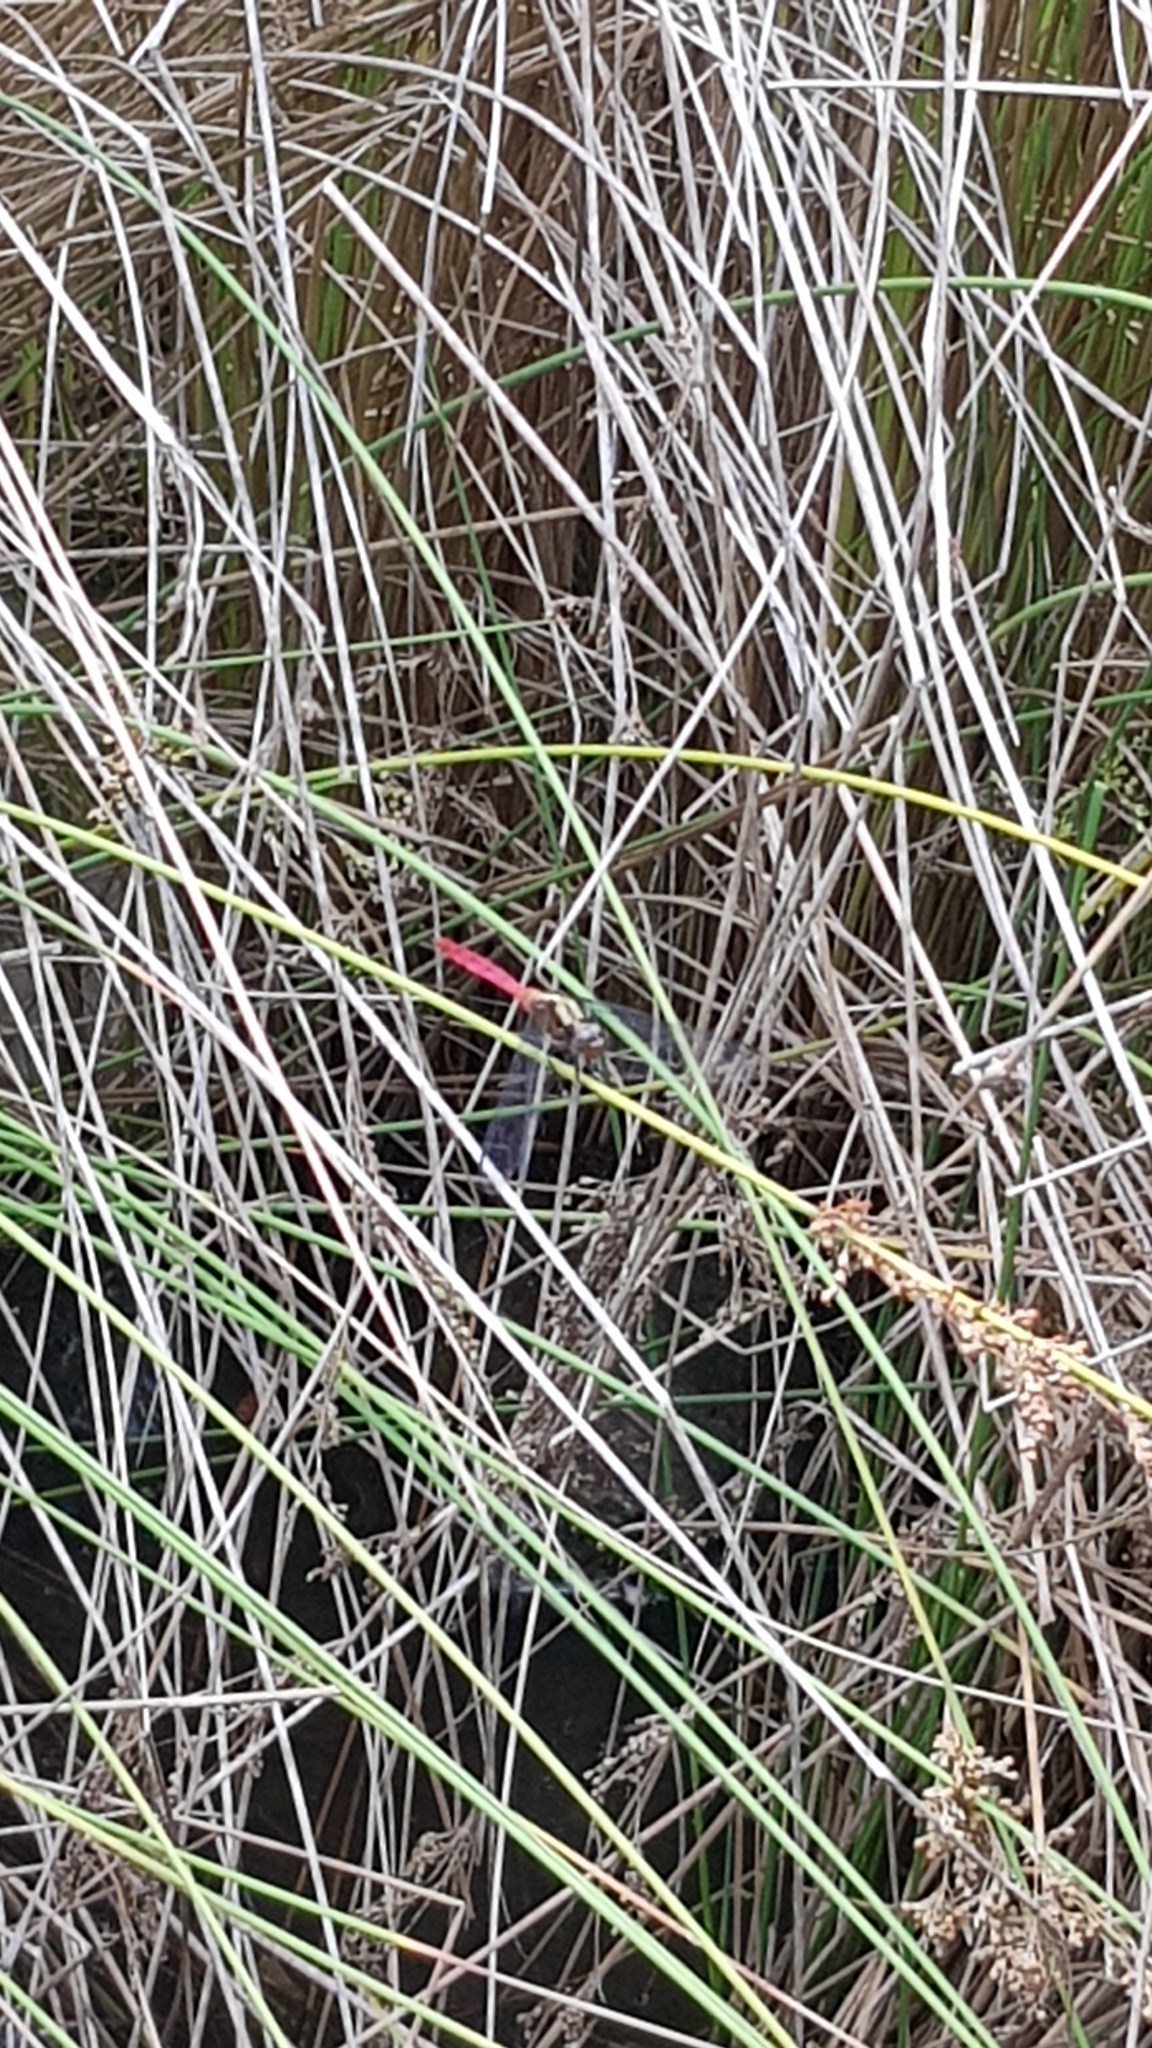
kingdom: Animalia
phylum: Arthropoda
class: Insecta
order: Odonata
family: Libellulidae
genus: Orthetrum
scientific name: Orthetrum villosovittatum
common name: Firery skimmer
